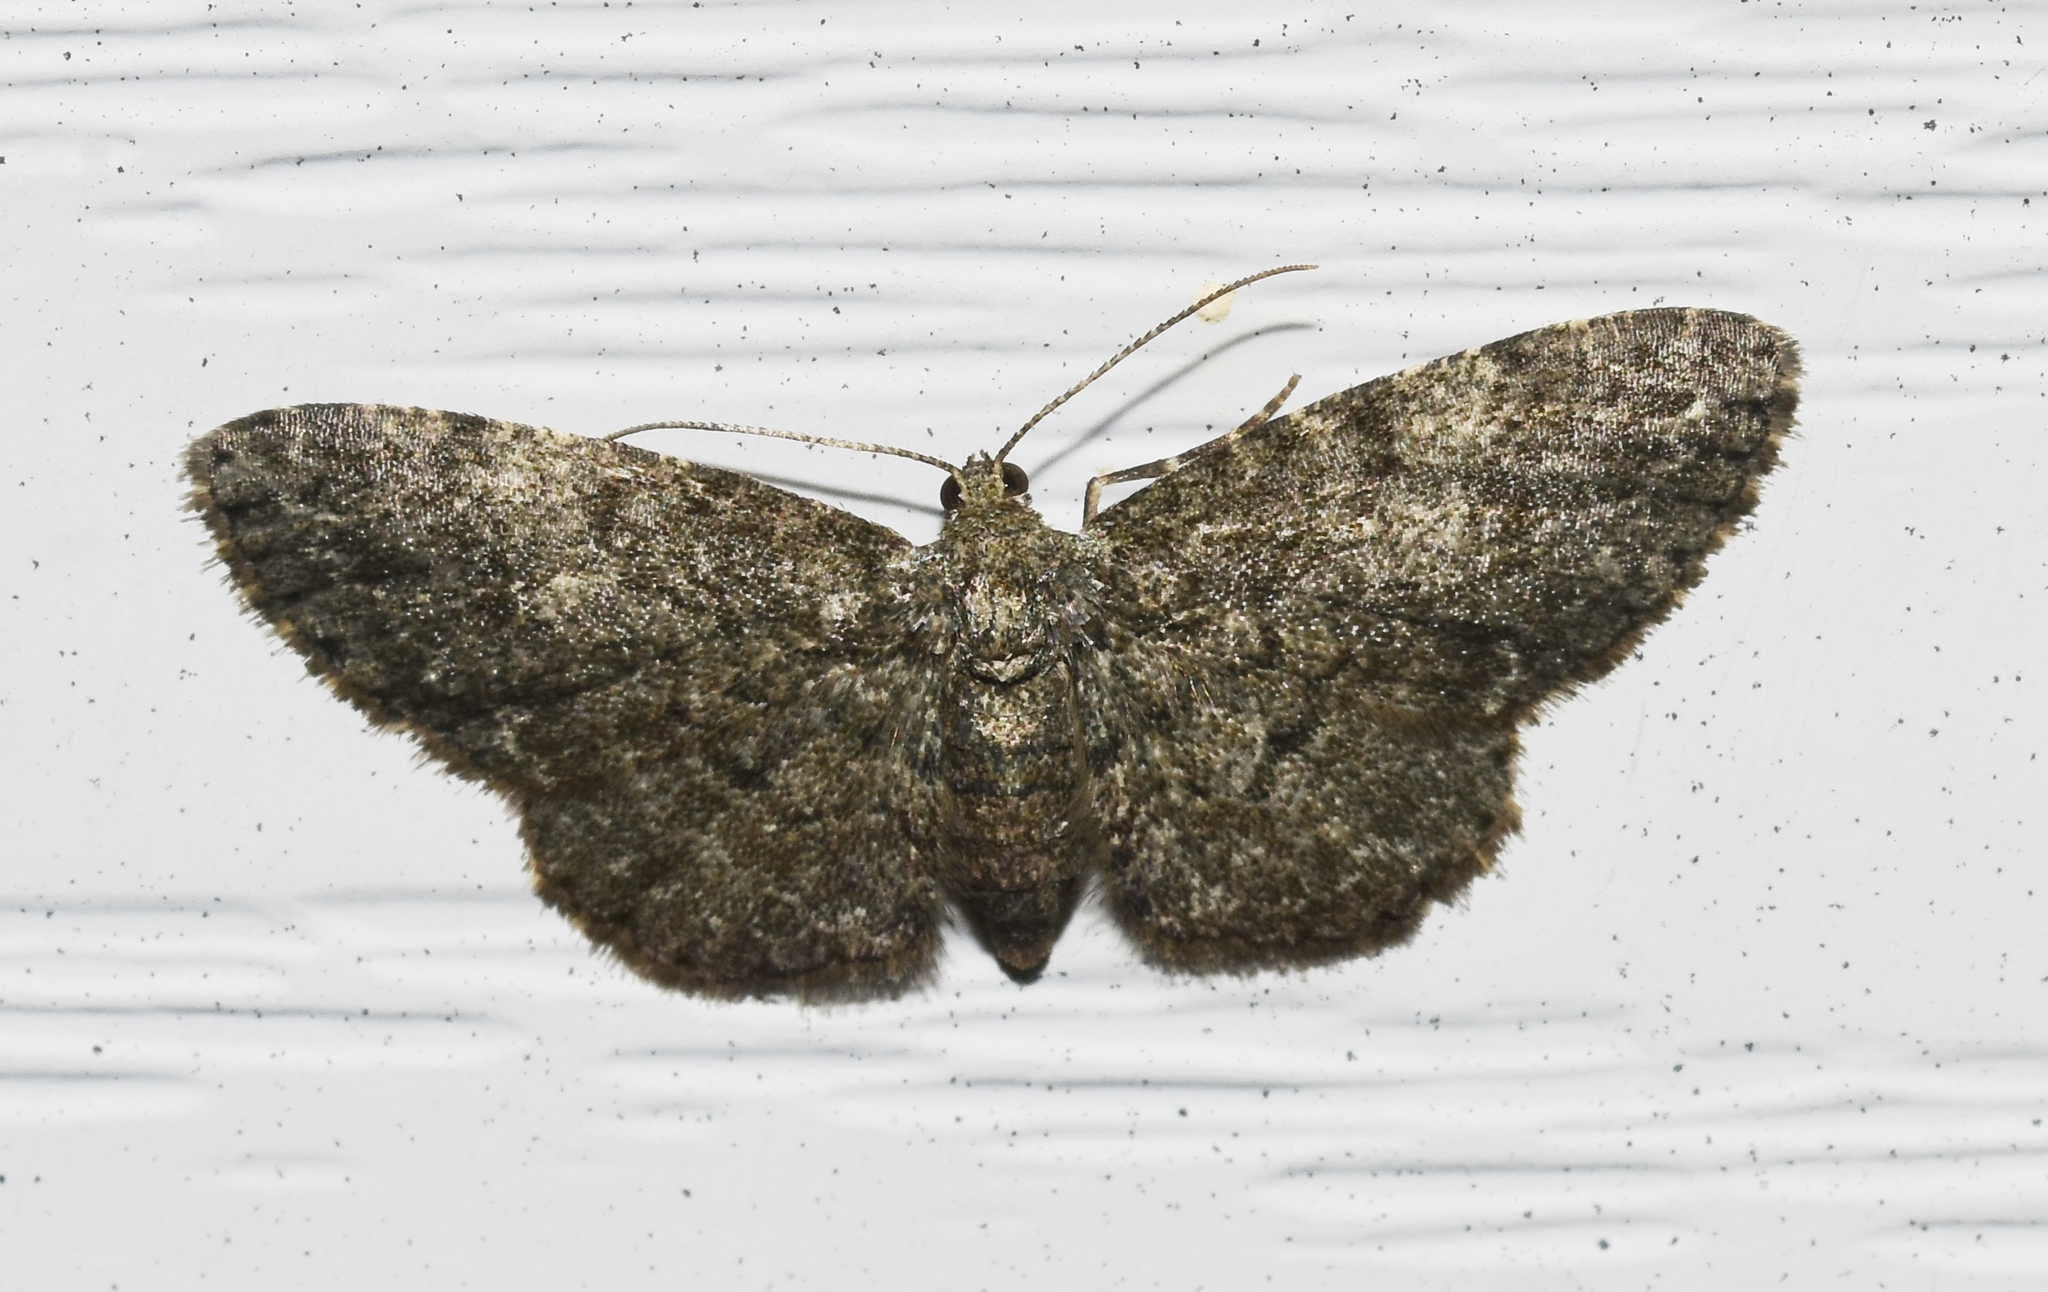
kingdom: Animalia
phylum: Arthropoda
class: Insecta
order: Lepidoptera
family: Geometridae
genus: Glenoides
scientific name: Glenoides texanaria
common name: Texas gray
